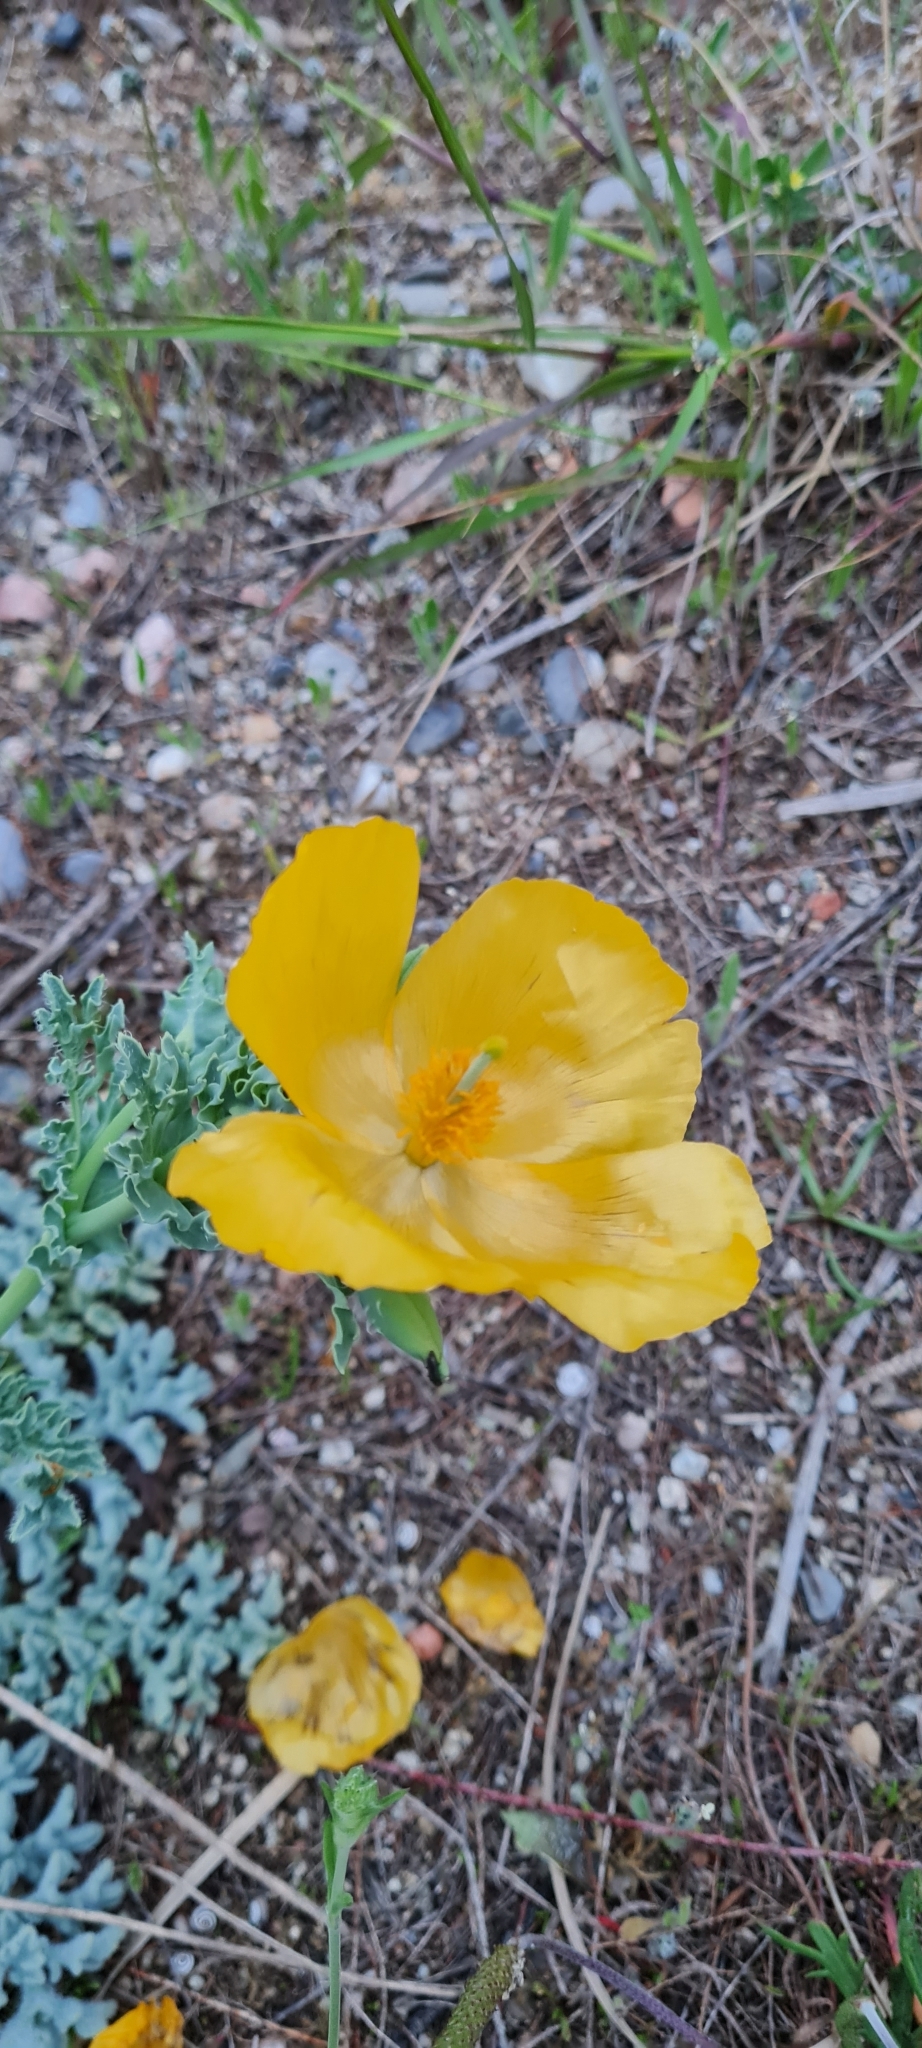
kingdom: Plantae
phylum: Tracheophyta
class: Magnoliopsida
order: Ranunculales
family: Papaveraceae
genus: Glaucium
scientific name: Glaucium flavum
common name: Yellow horned-poppy
